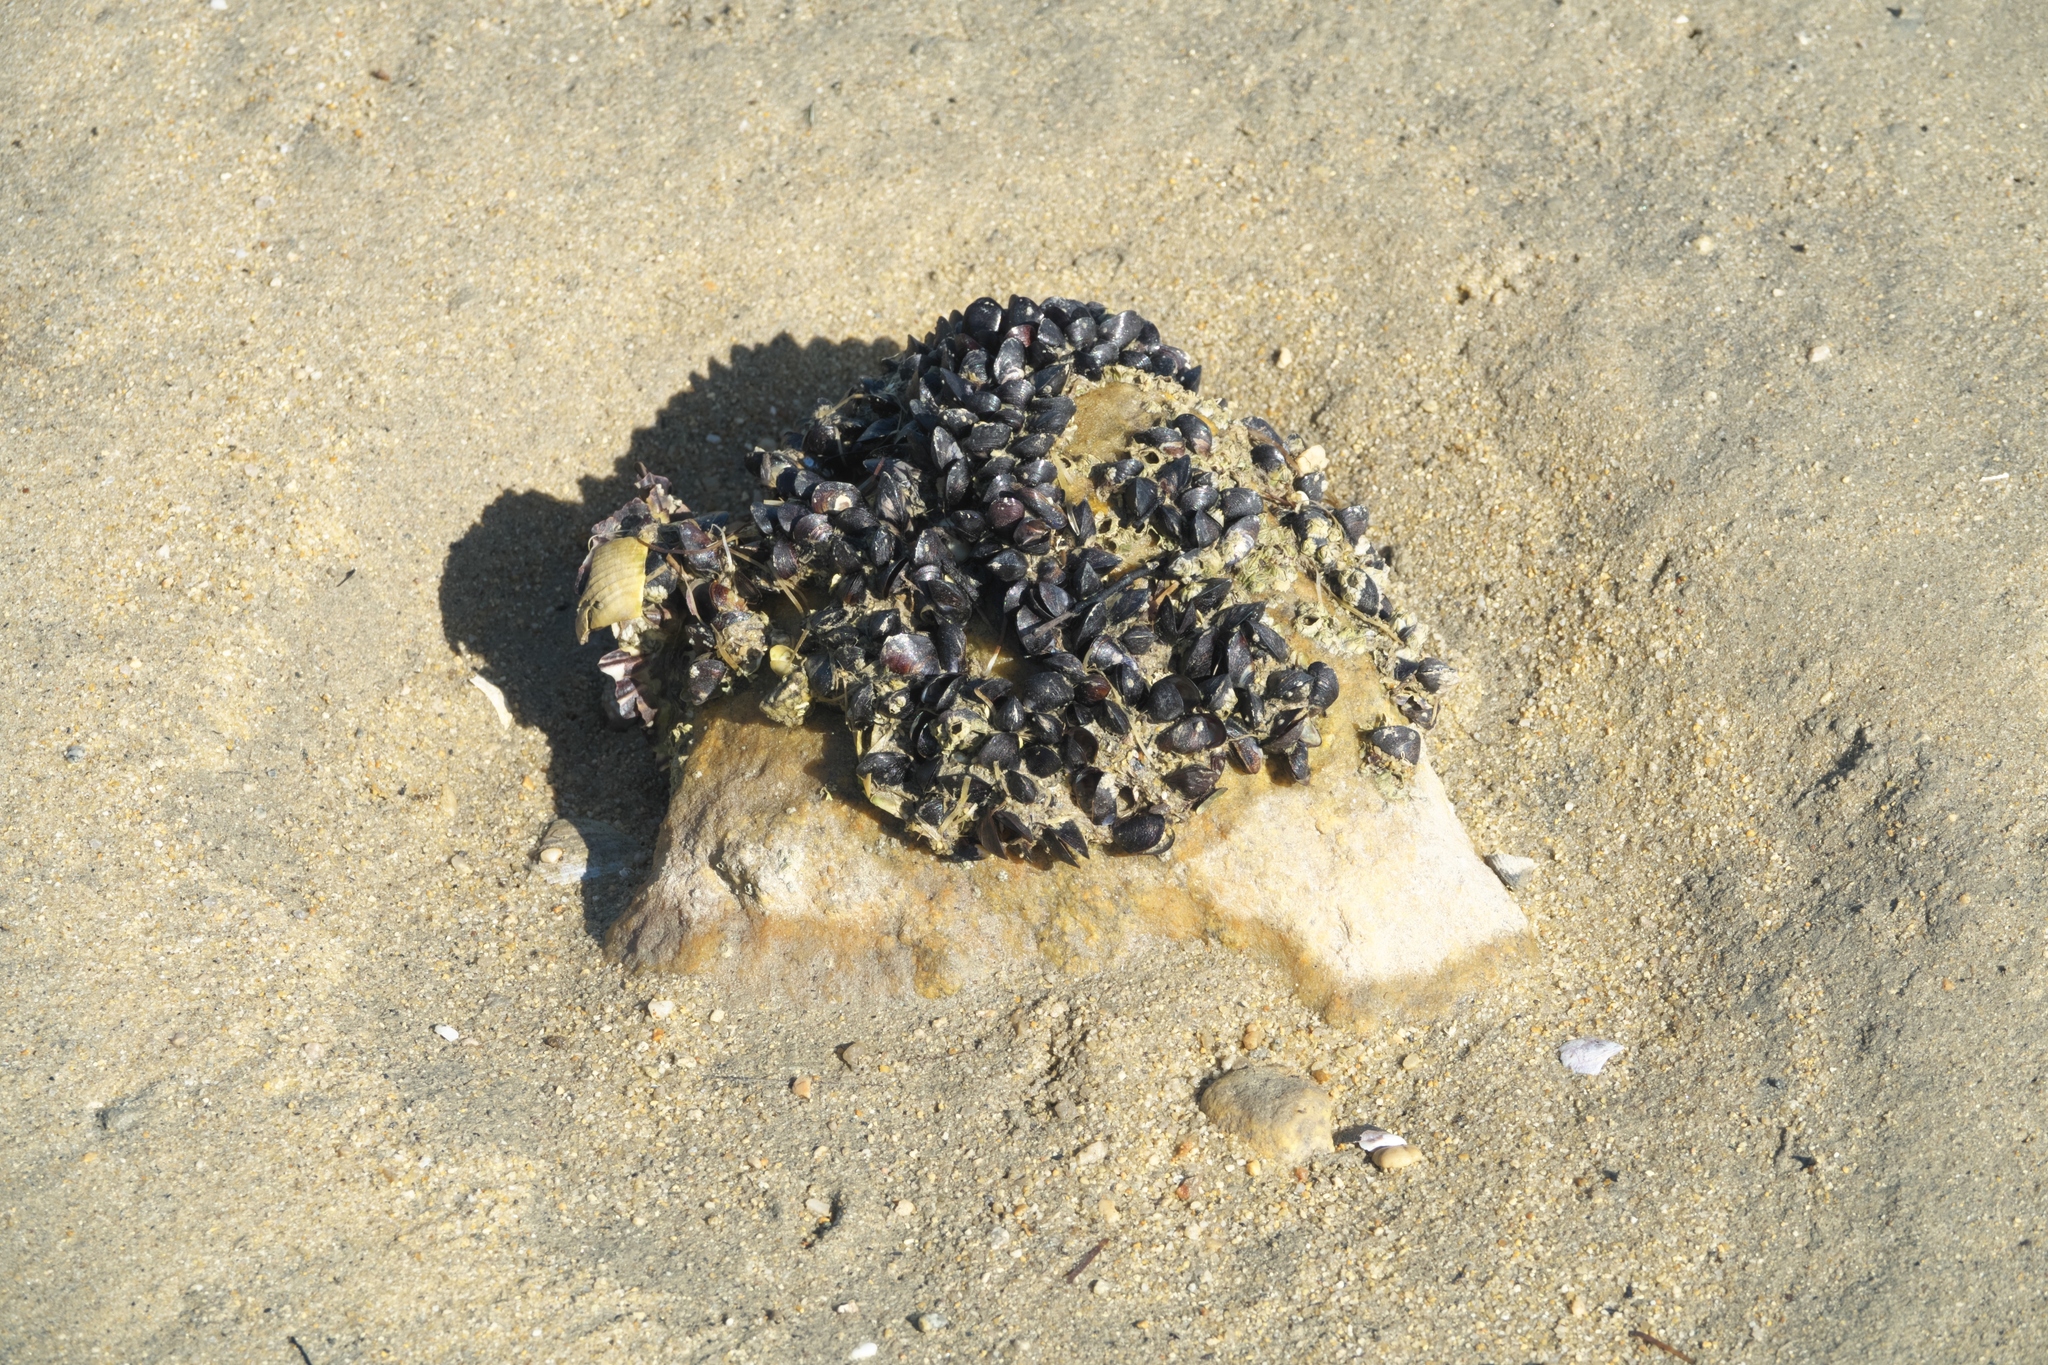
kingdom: Animalia
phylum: Mollusca
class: Bivalvia
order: Mytilida
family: Mytilidae
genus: Xenostrobus
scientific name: Xenostrobus neozelanicus
